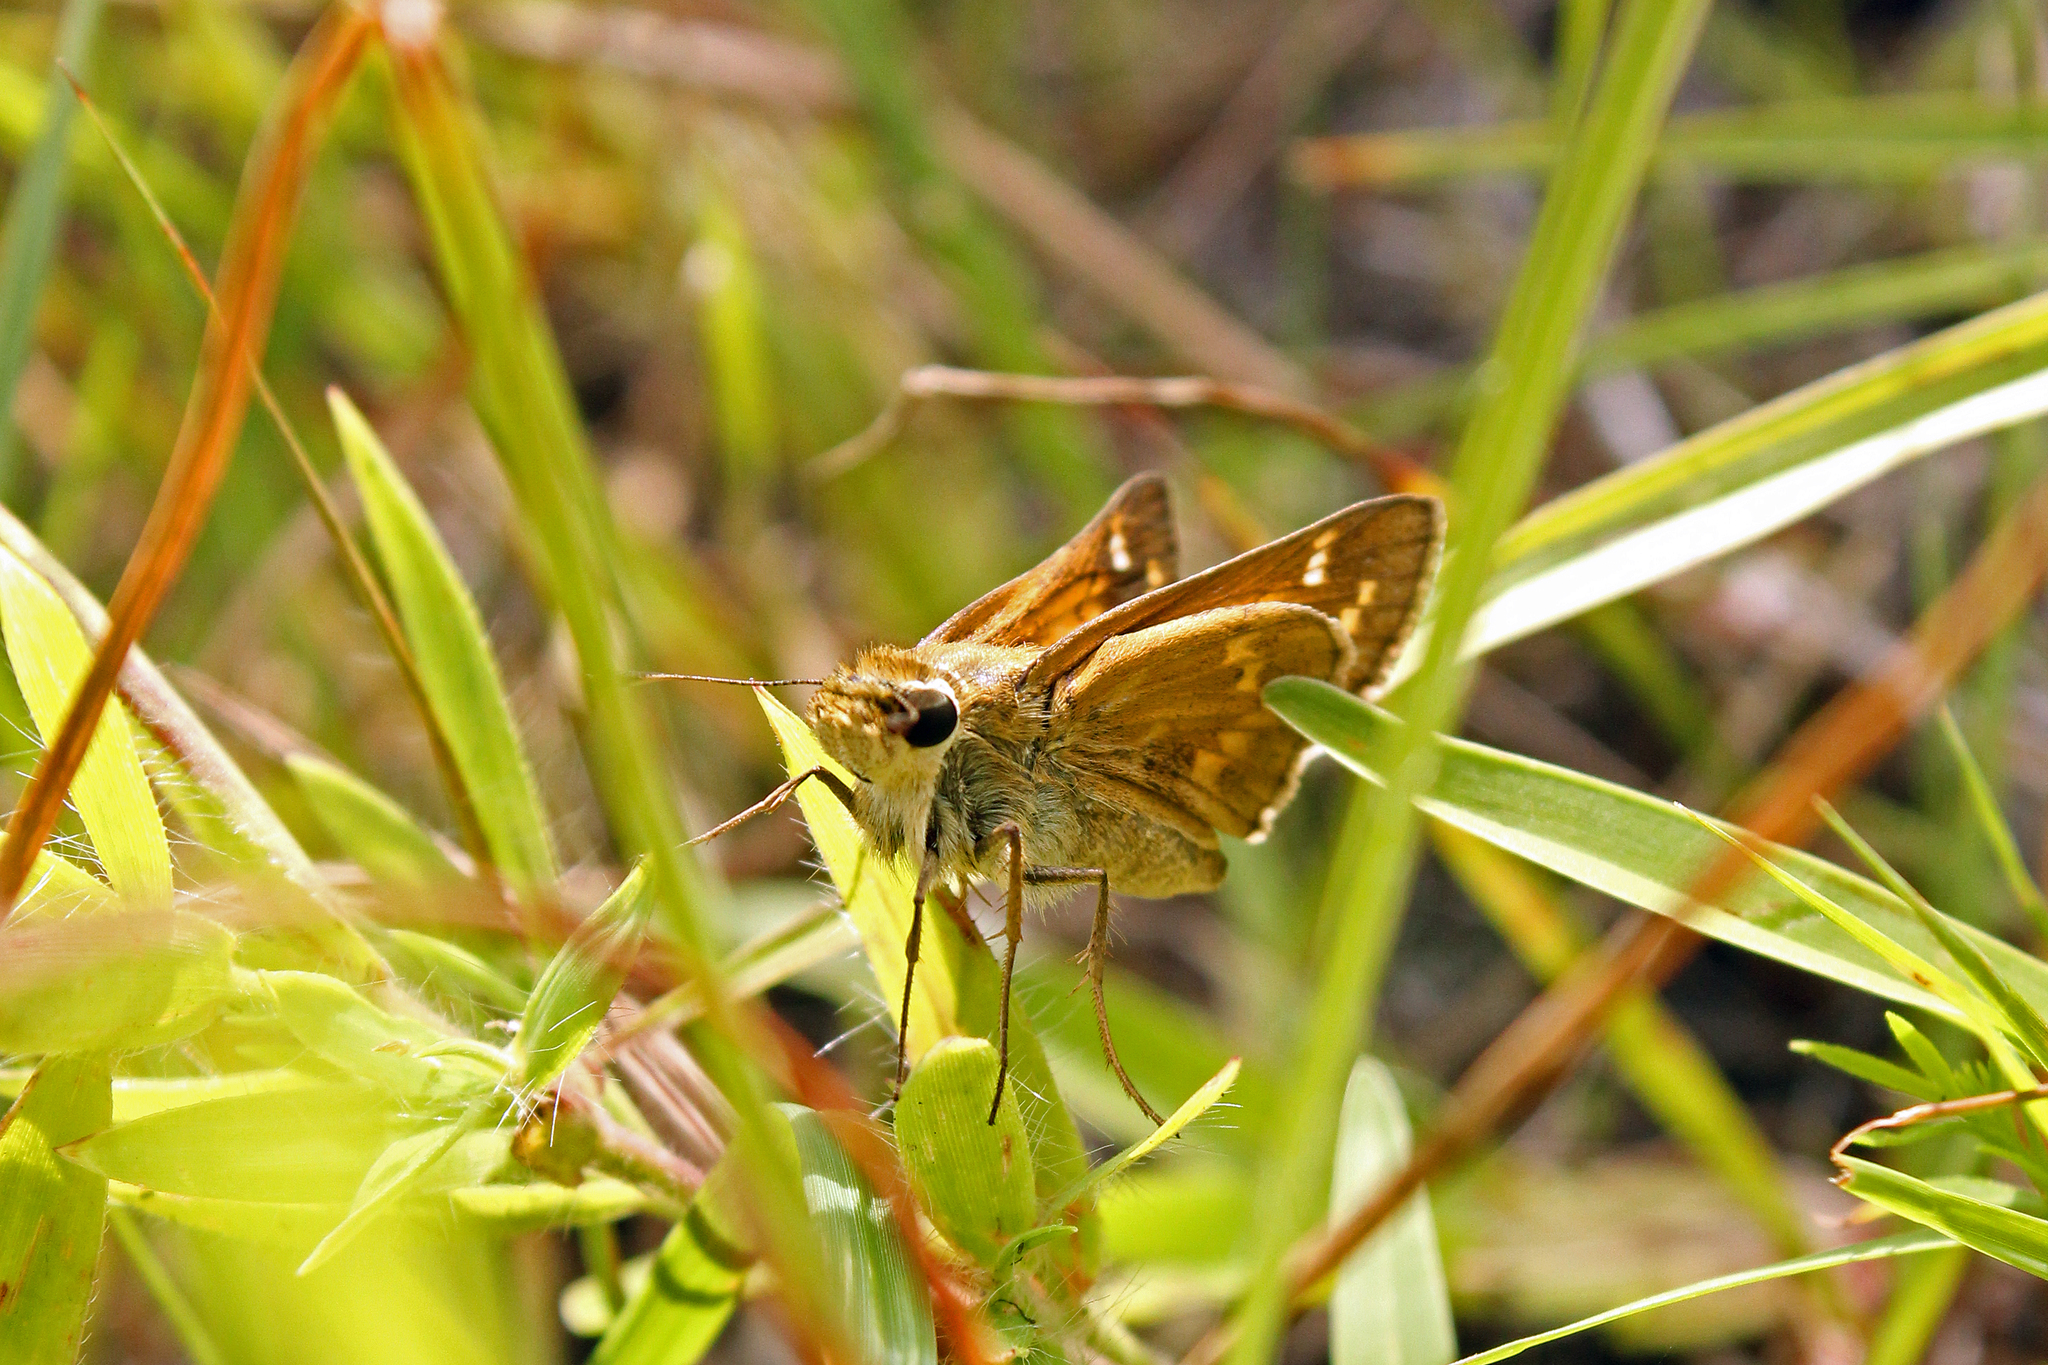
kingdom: Animalia
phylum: Arthropoda
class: Insecta
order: Lepidoptera
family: Hesperiidae
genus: Atalopedes
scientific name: Atalopedes
